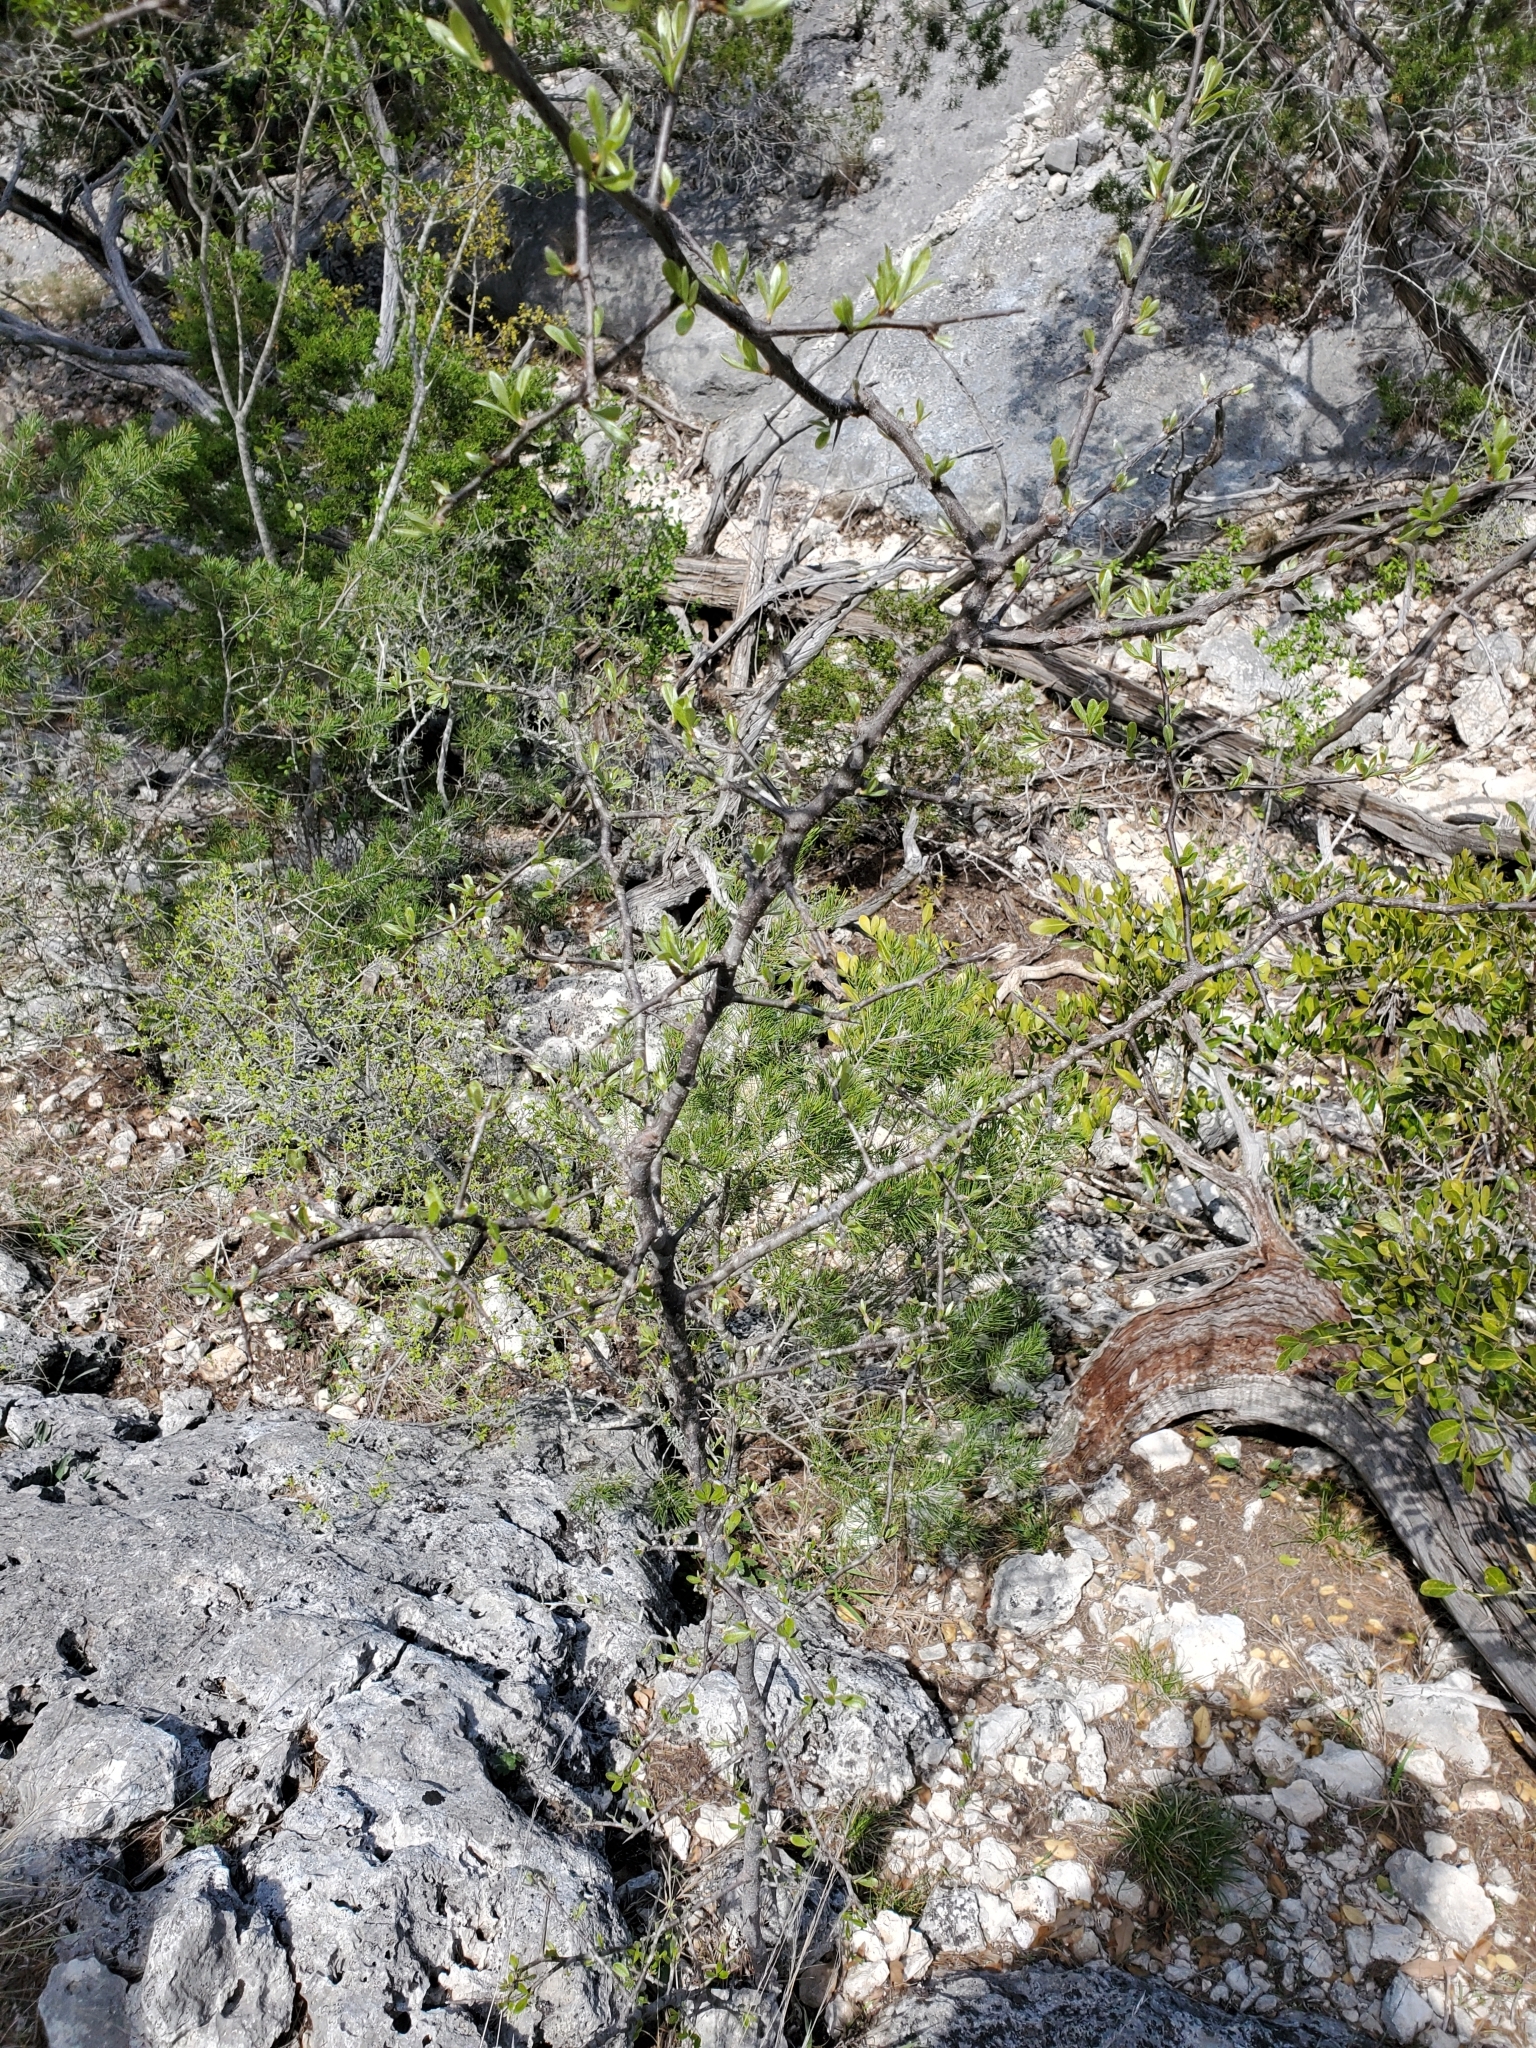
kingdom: Plantae
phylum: Tracheophyta
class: Magnoliopsida
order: Ericales
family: Sapotaceae
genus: Sideroxylon
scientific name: Sideroxylon lanuginosum
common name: Chittamwood
